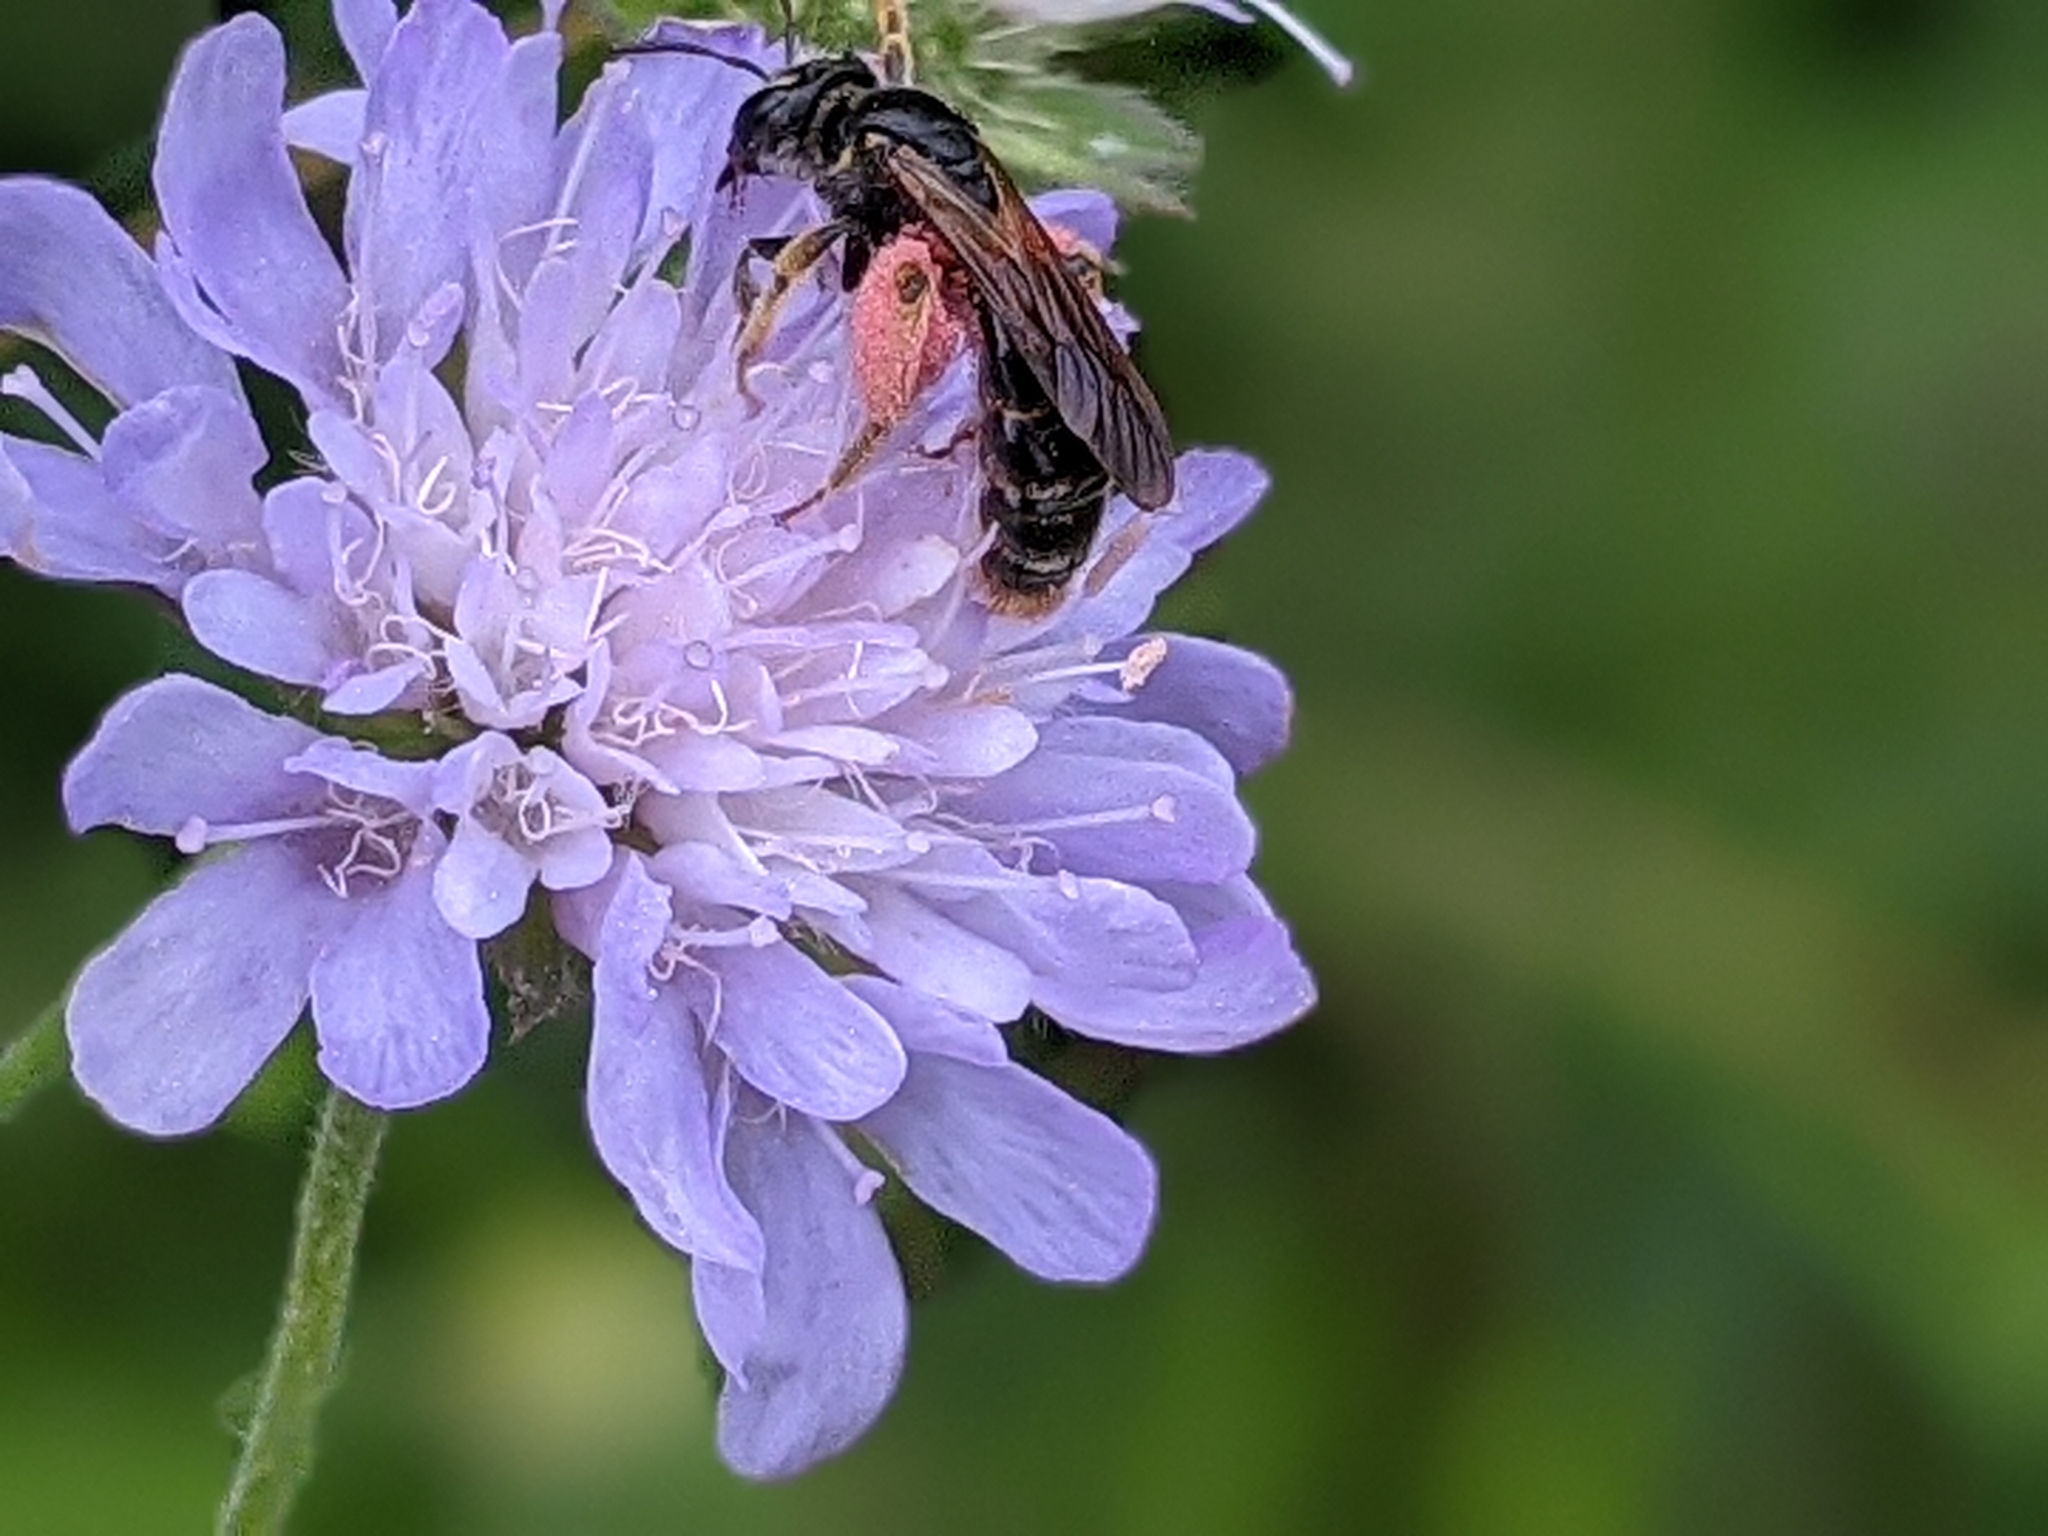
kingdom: Animalia
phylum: Arthropoda
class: Insecta
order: Hymenoptera
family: Andrenidae
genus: Andrena
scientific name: Andrena hattorfiana
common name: Large scabious mining bee
